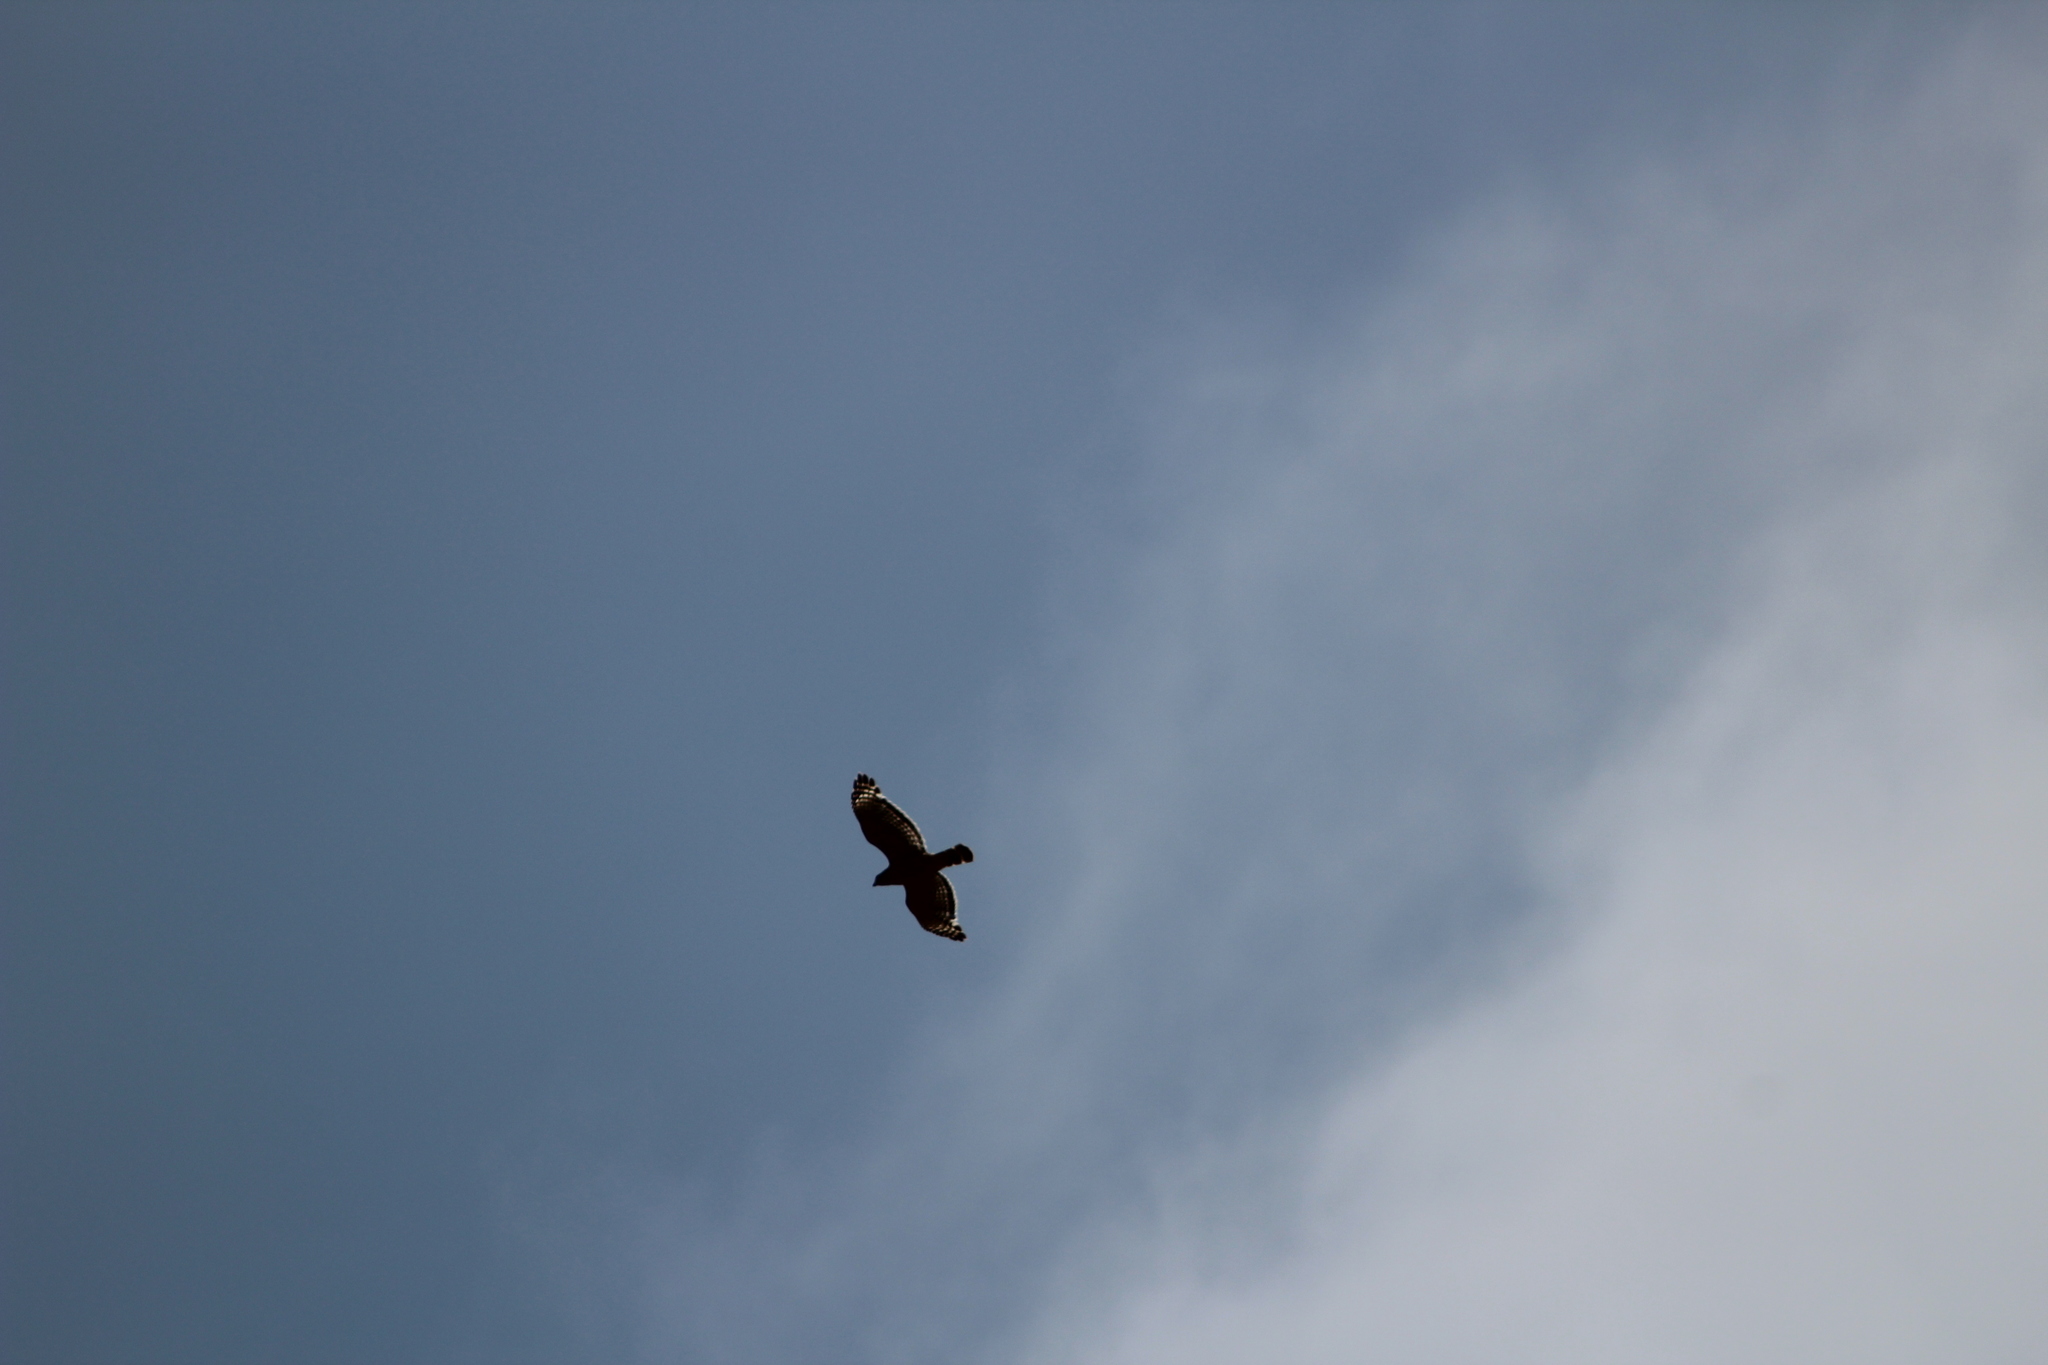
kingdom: Animalia
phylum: Chordata
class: Aves
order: Accipitriformes
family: Accipitridae
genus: Buteo
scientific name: Buteo lineatus
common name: Red-shouldered hawk
